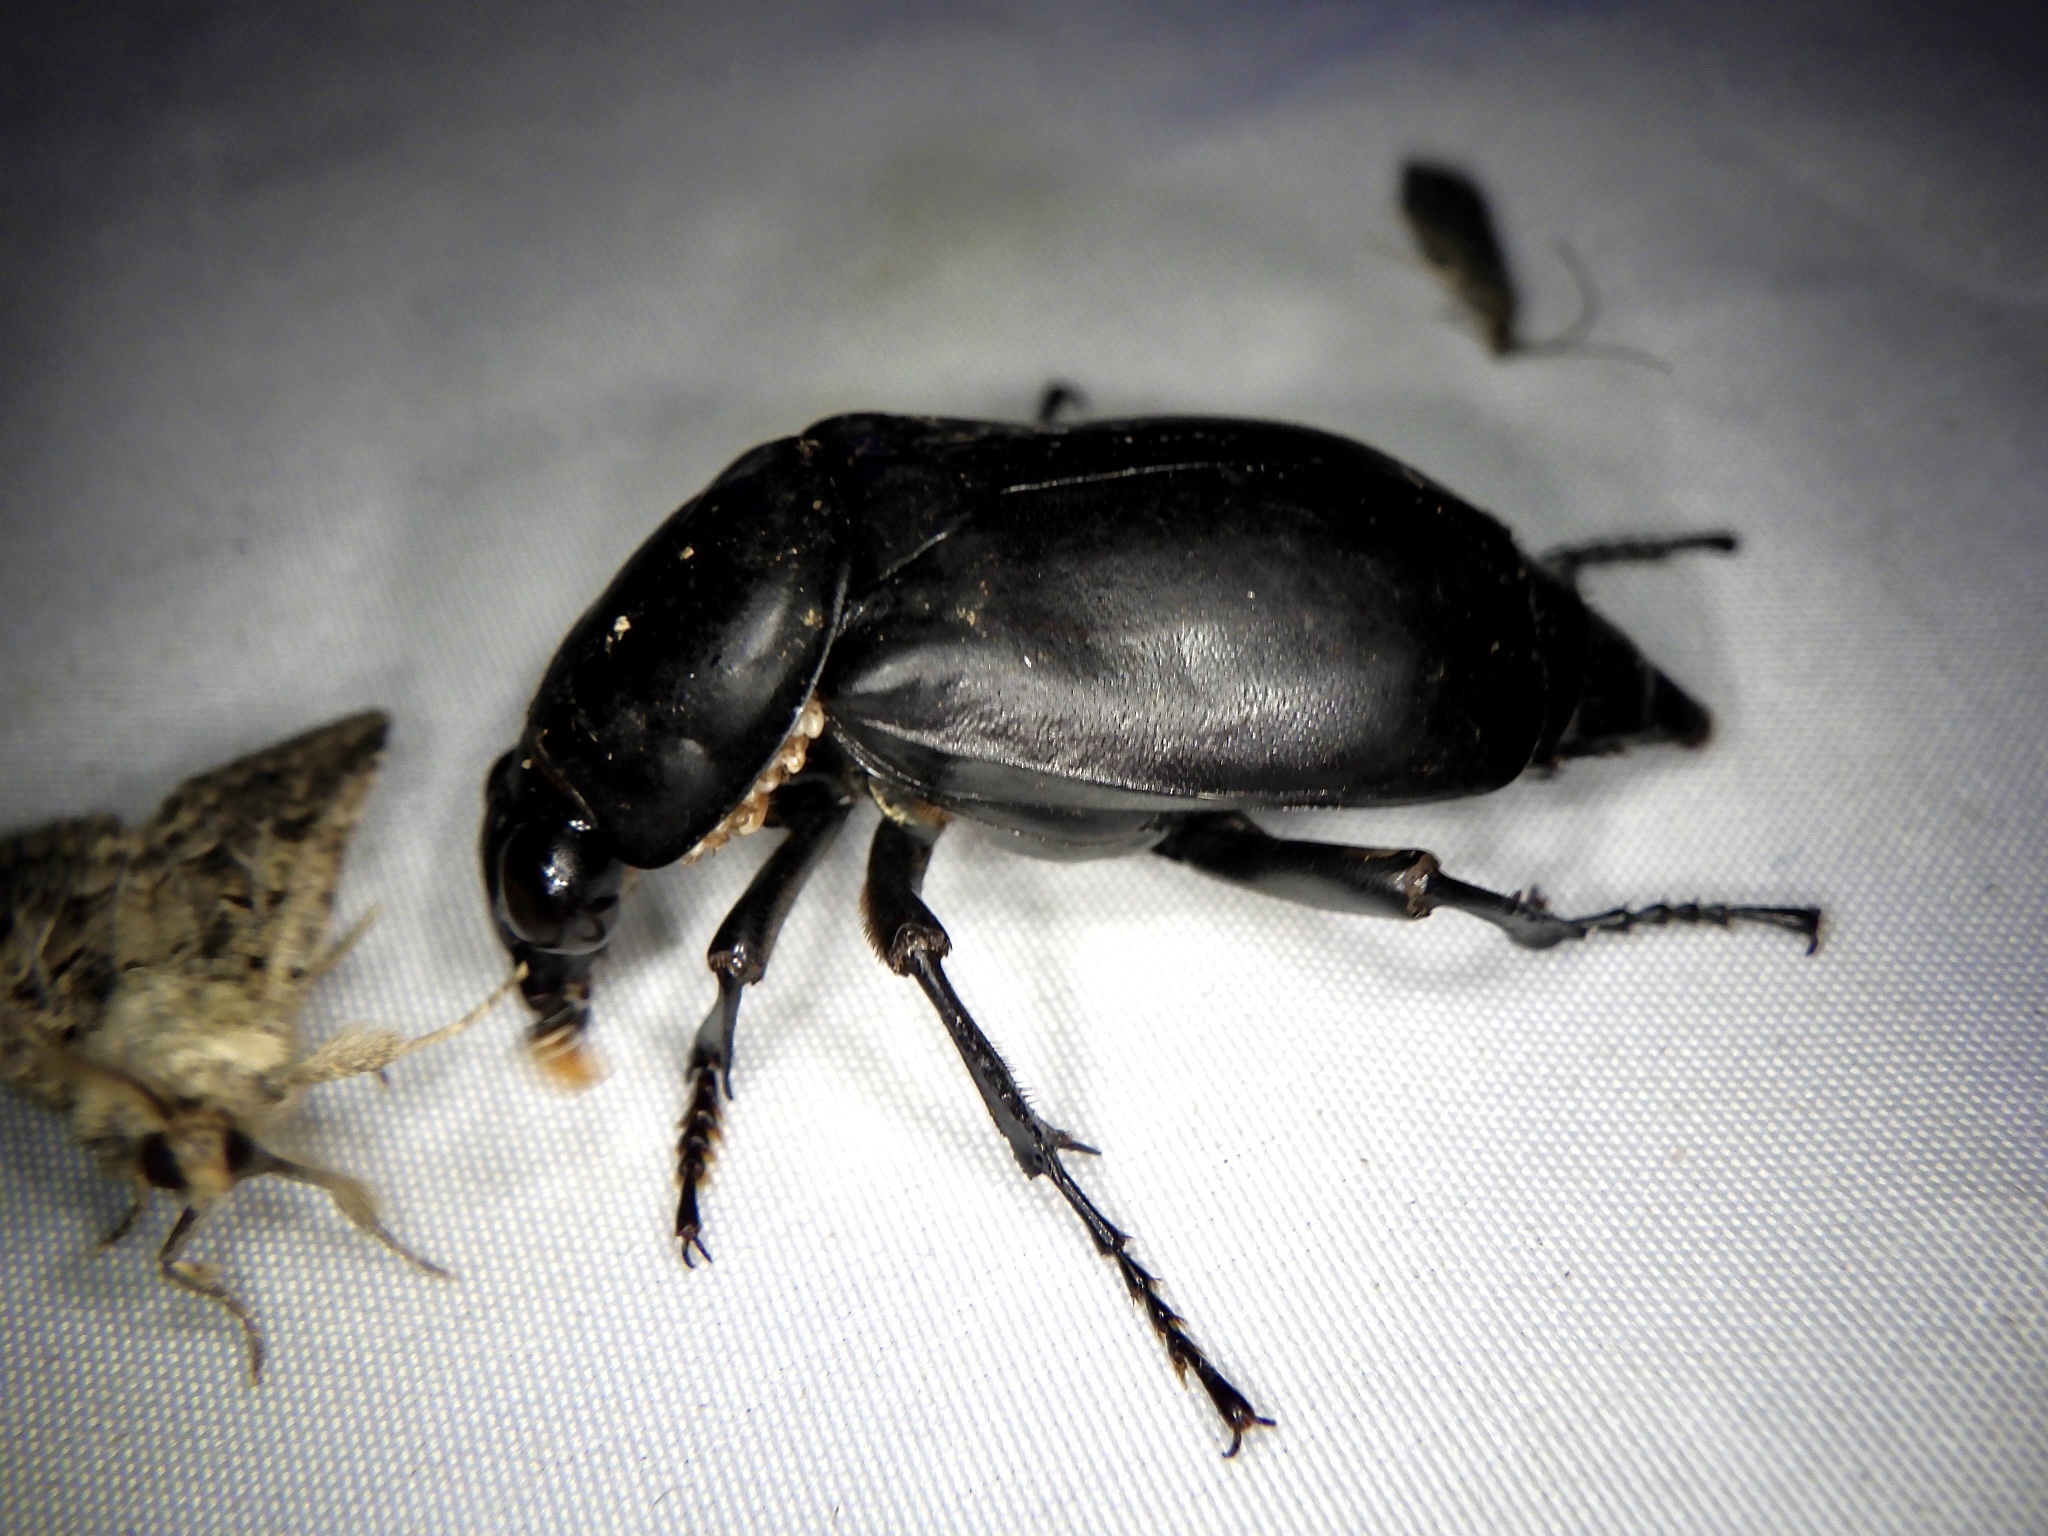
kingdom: Animalia
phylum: Arthropoda
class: Insecta
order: Coleoptera
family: Staphylinidae
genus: Nicrophorus
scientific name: Nicrophorus concolor
